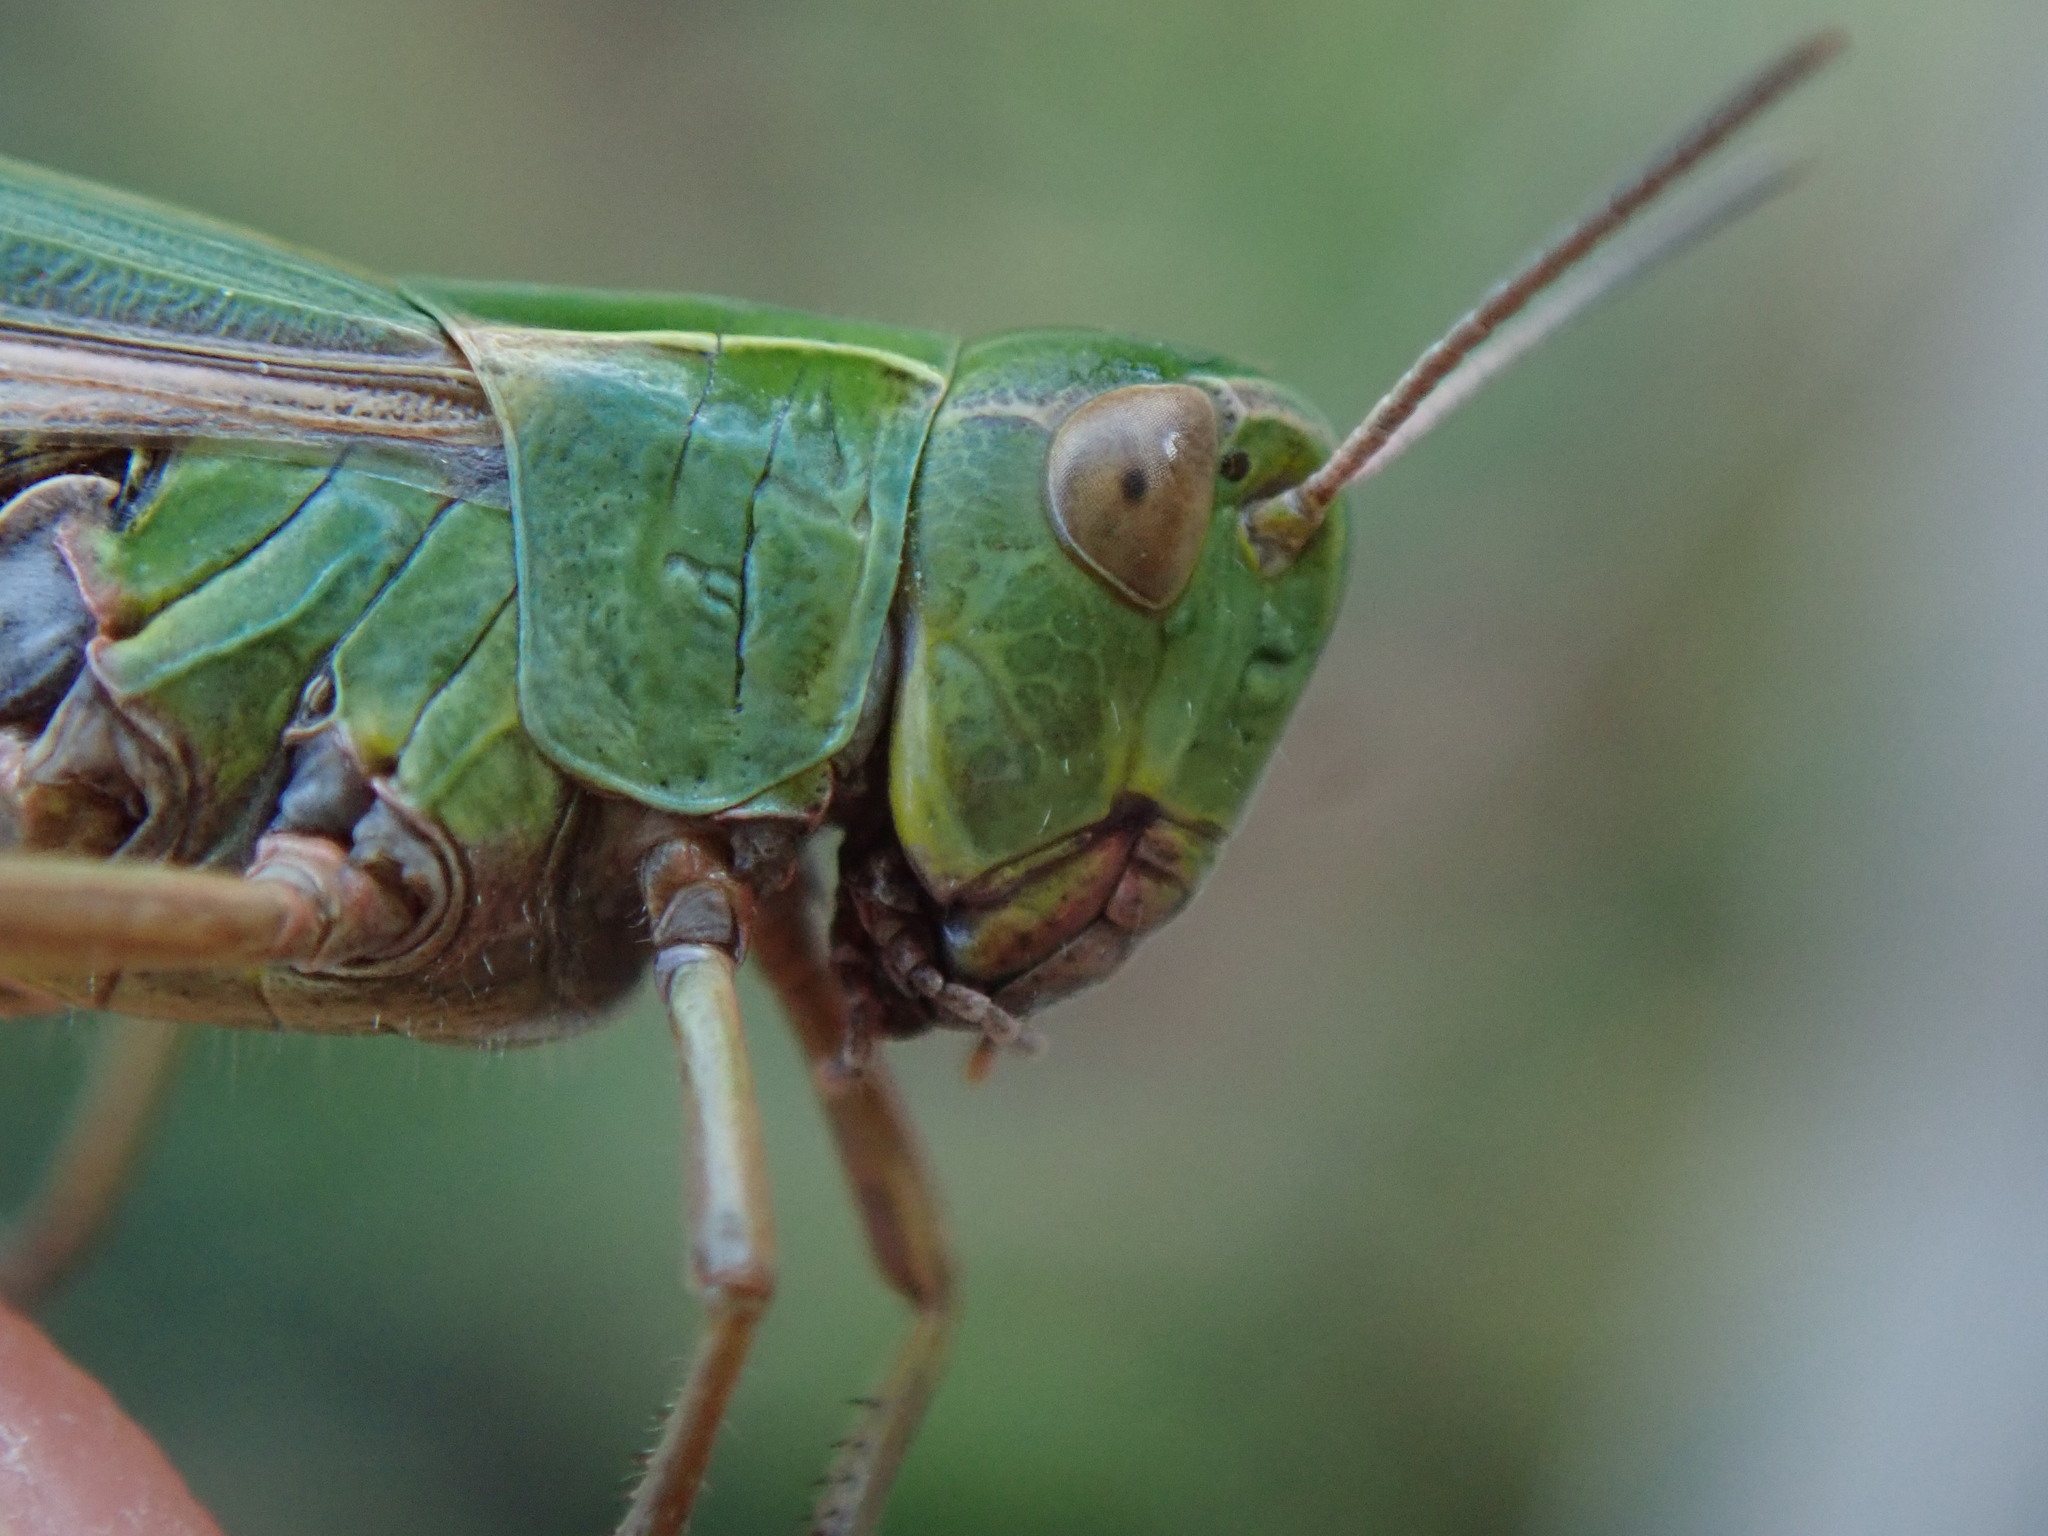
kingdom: Animalia
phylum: Arthropoda
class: Insecta
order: Orthoptera
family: Acrididae
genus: Omocestus
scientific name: Omocestus viridulus
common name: Common green grasshopper
